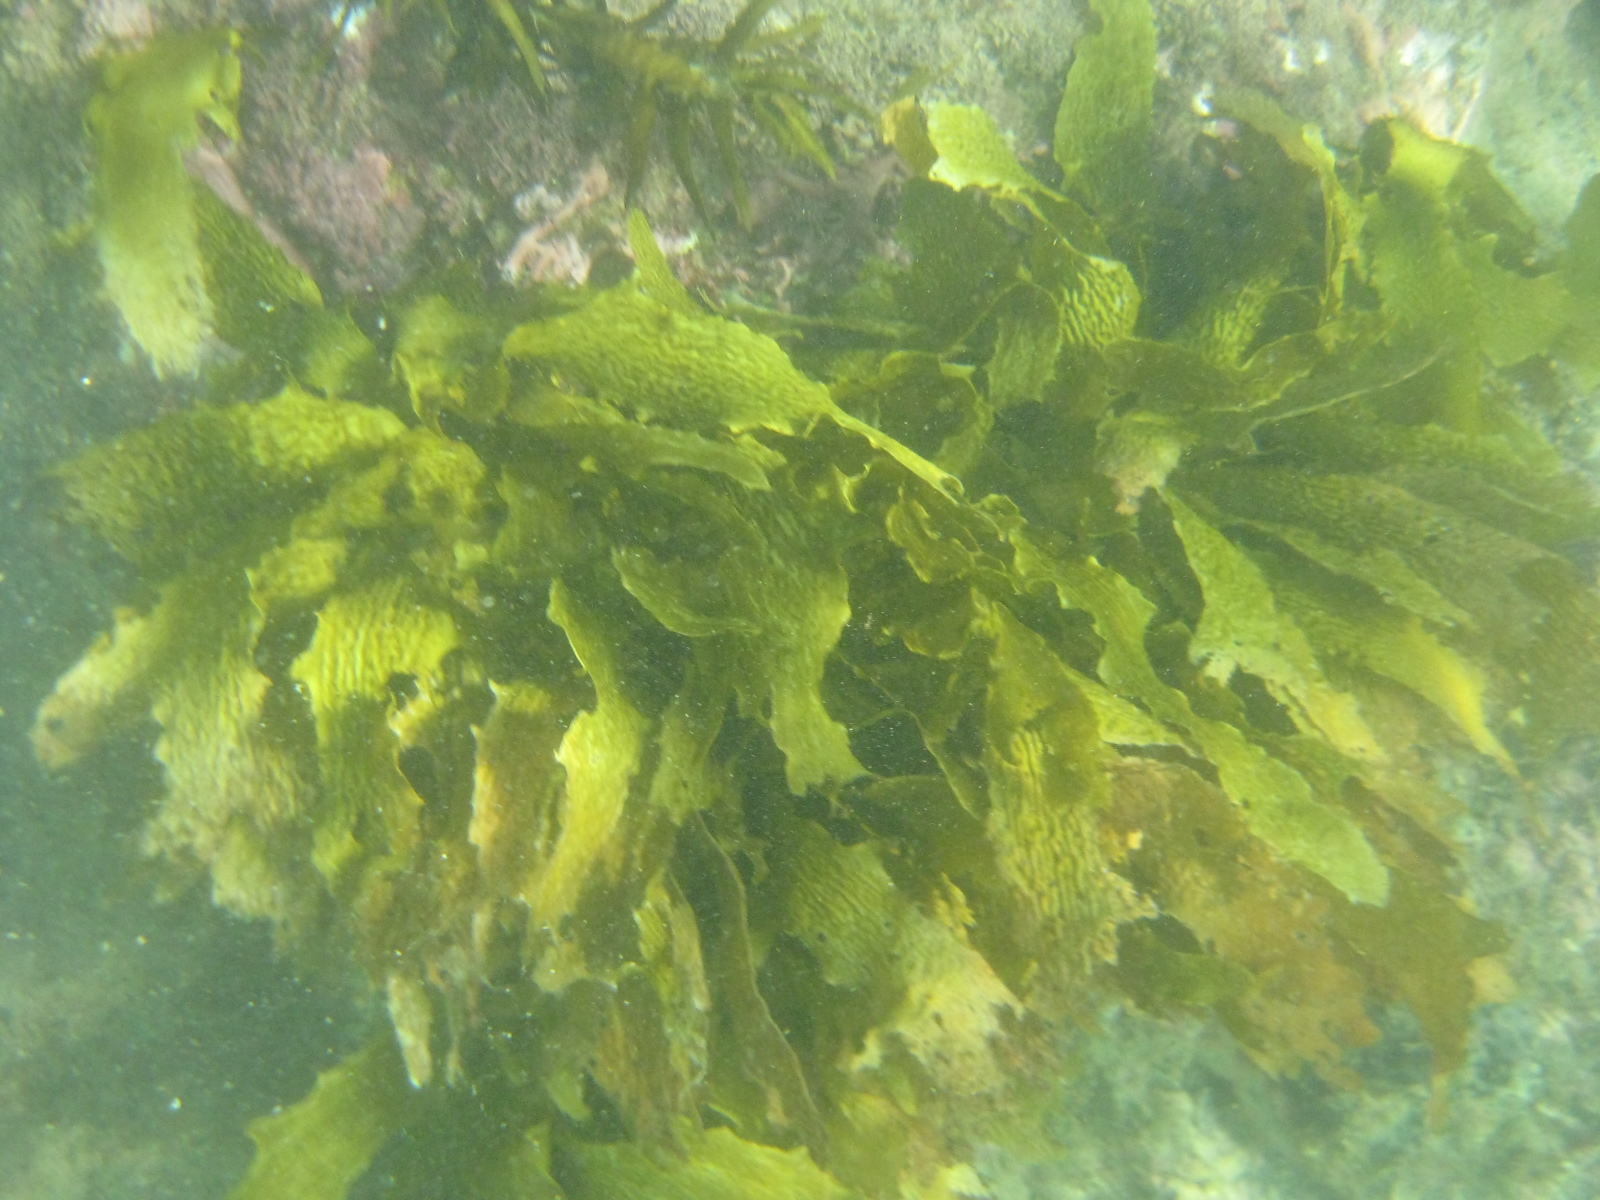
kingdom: Chromista
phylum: Ochrophyta
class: Phaeophyceae
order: Laminariales
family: Lessoniaceae
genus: Ecklonia
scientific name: Ecklonia radiata
